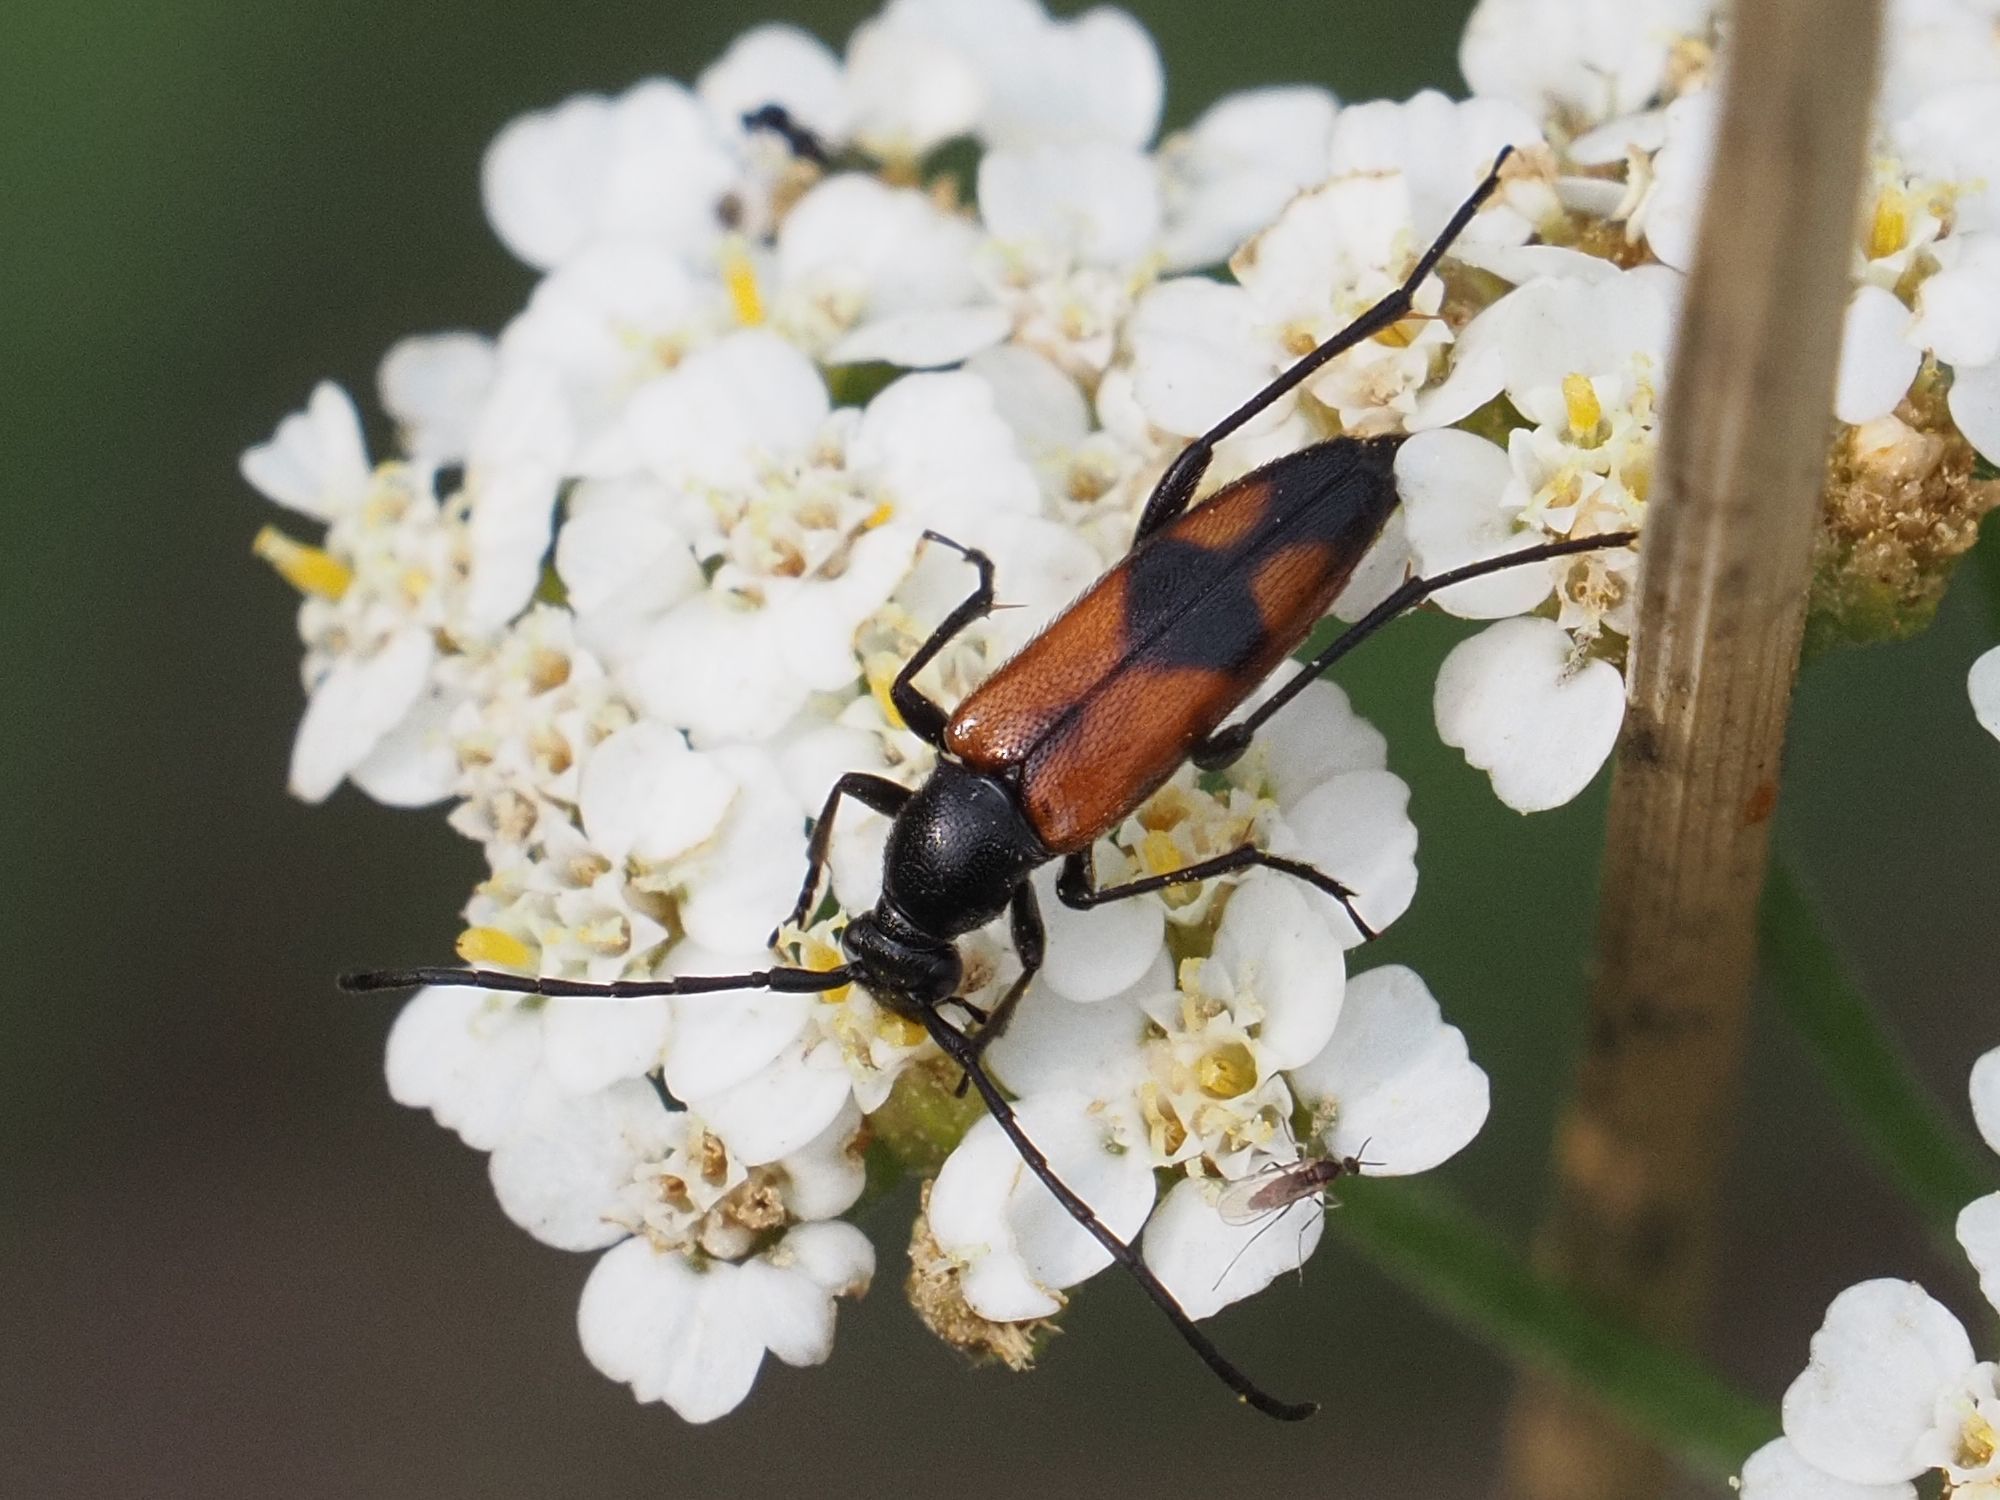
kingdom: Animalia
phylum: Arthropoda
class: Insecta
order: Coleoptera
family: Cerambycidae
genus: Stenurella
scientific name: Stenurella bifasciata
